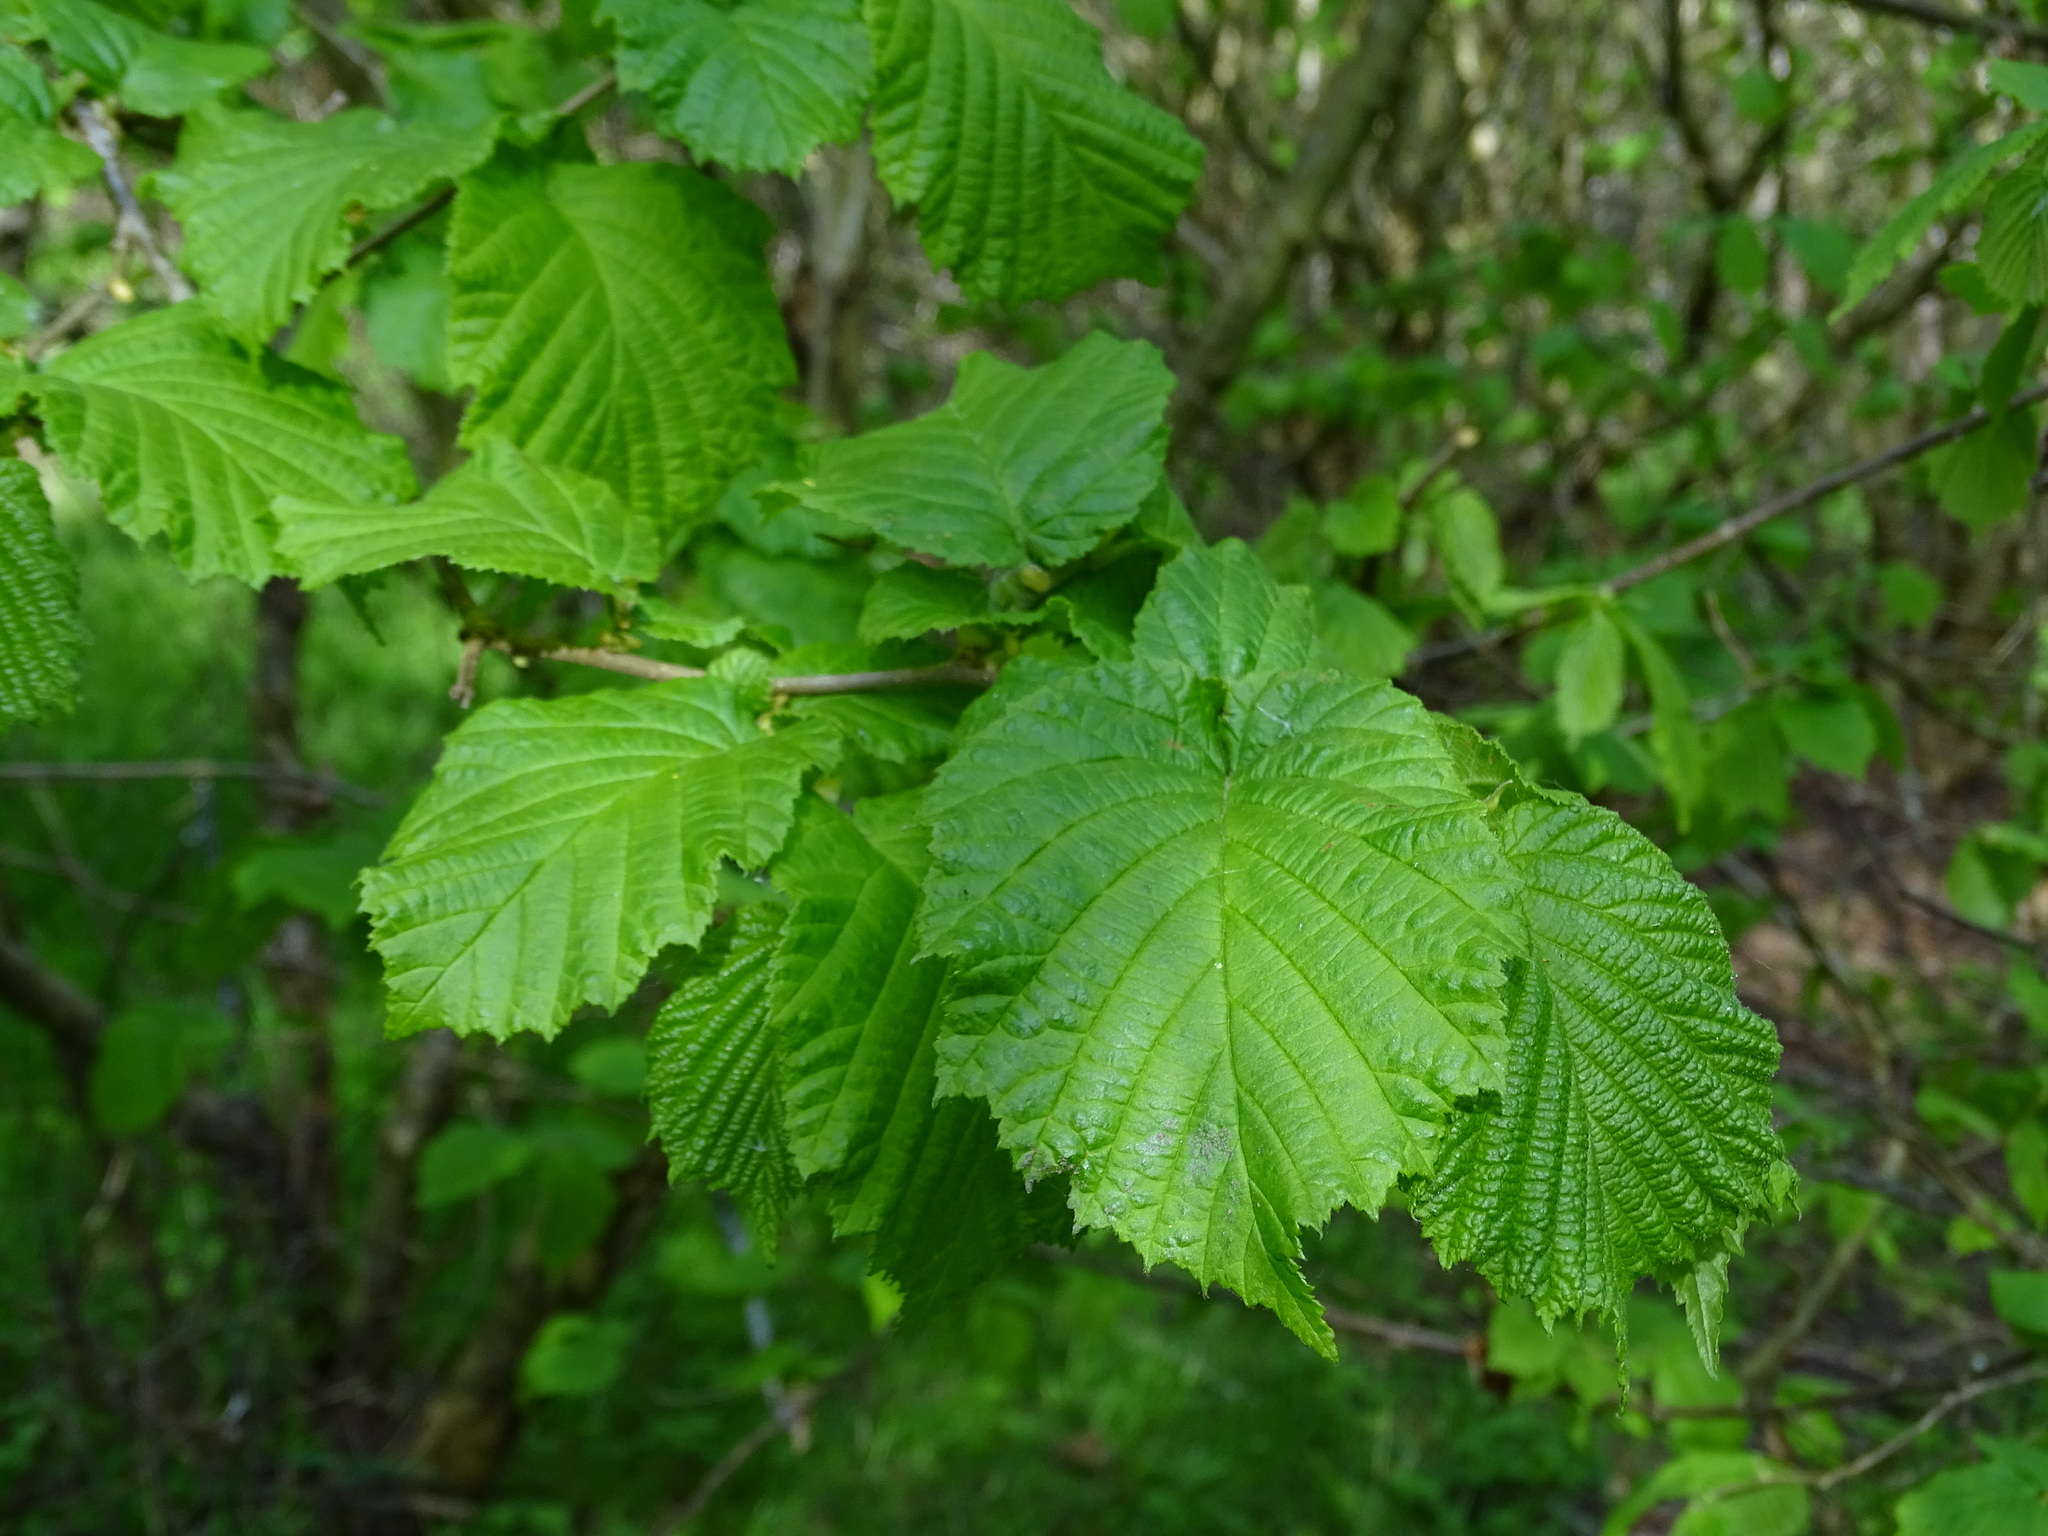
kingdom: Plantae
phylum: Tracheophyta
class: Magnoliopsida
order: Fagales
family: Betulaceae
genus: Corylus
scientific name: Corylus avellana
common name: European hazel
